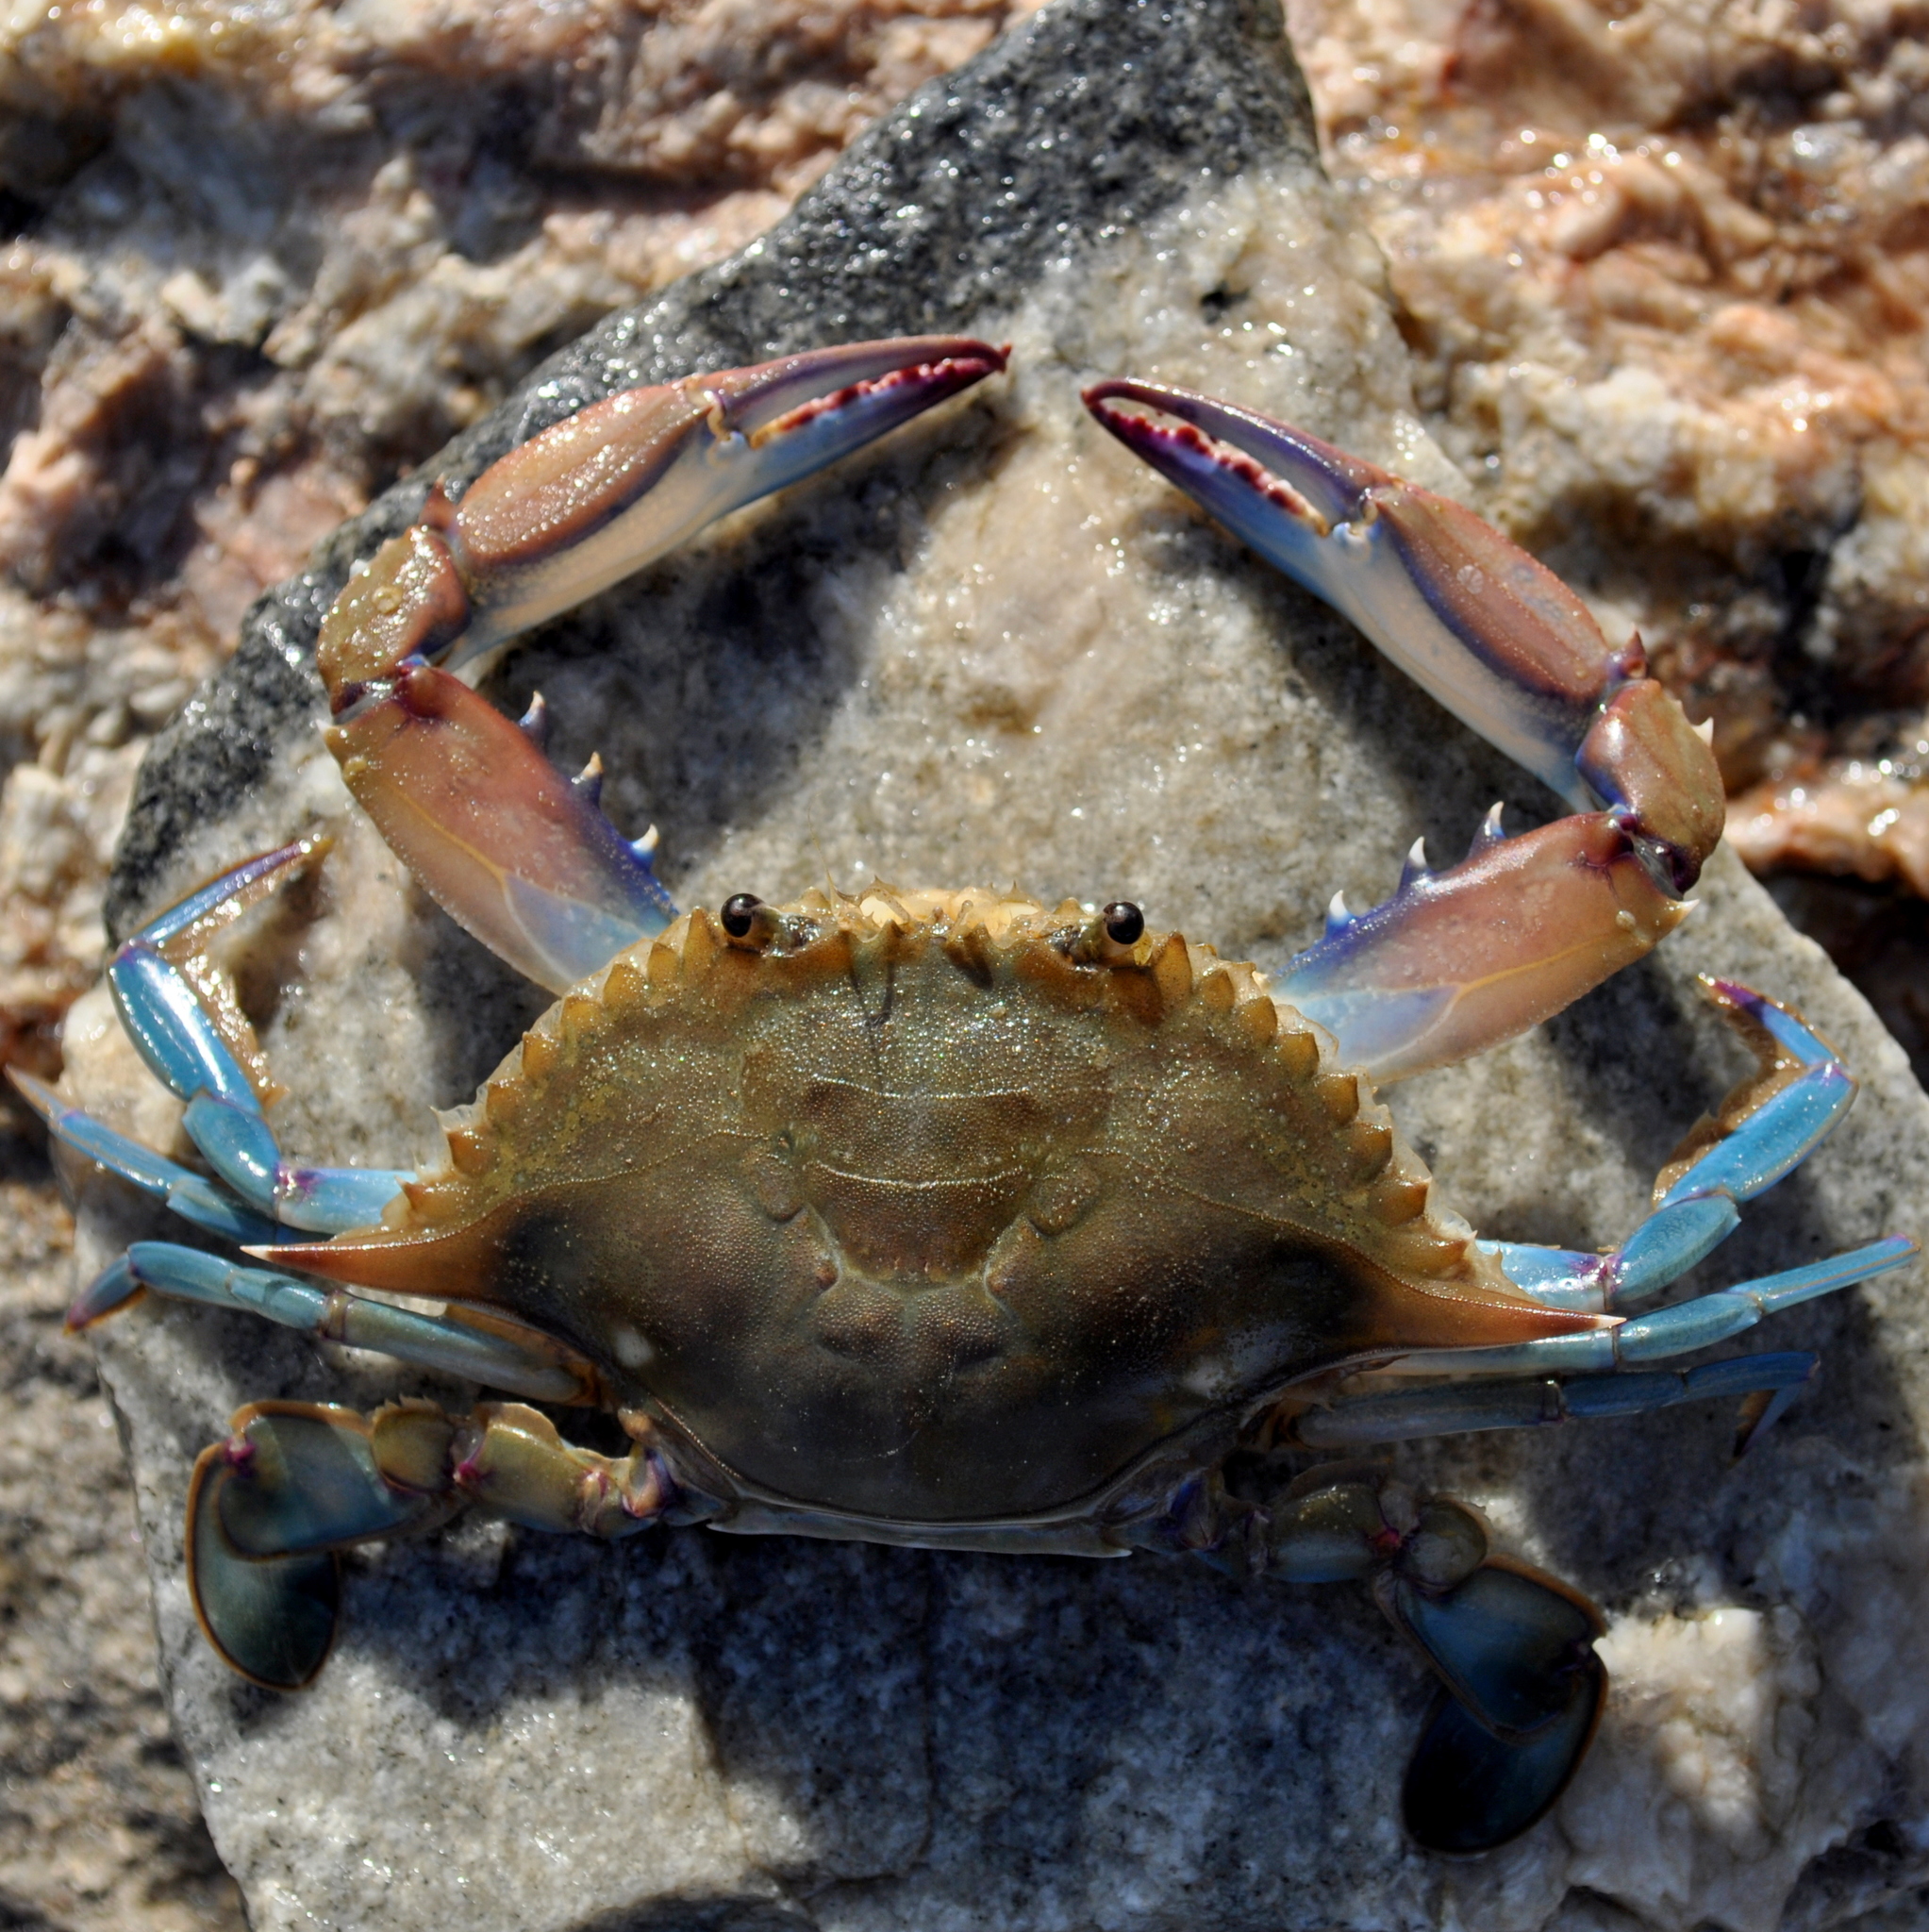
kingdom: Animalia
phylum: Arthropoda
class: Malacostraca
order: Decapoda
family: Portunidae
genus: Callinectes
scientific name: Callinectes danae
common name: Dana swimming crab
